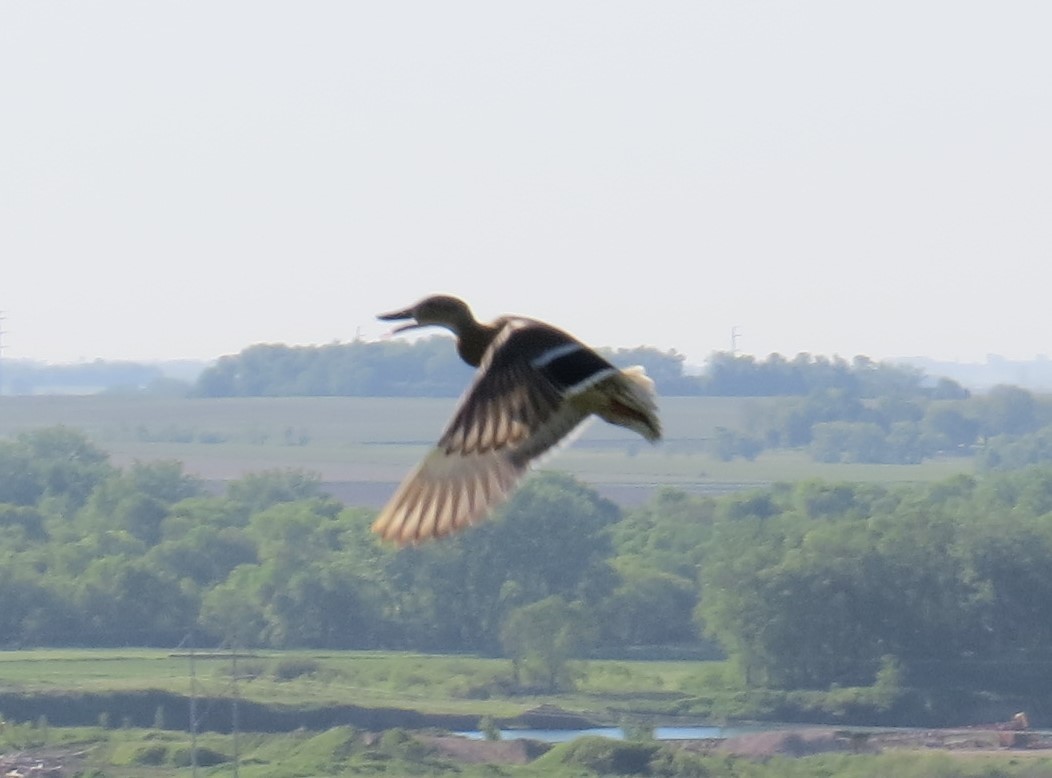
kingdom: Animalia
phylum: Chordata
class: Aves
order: Anseriformes
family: Anatidae
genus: Anas
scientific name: Anas platyrhynchos
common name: Mallard
